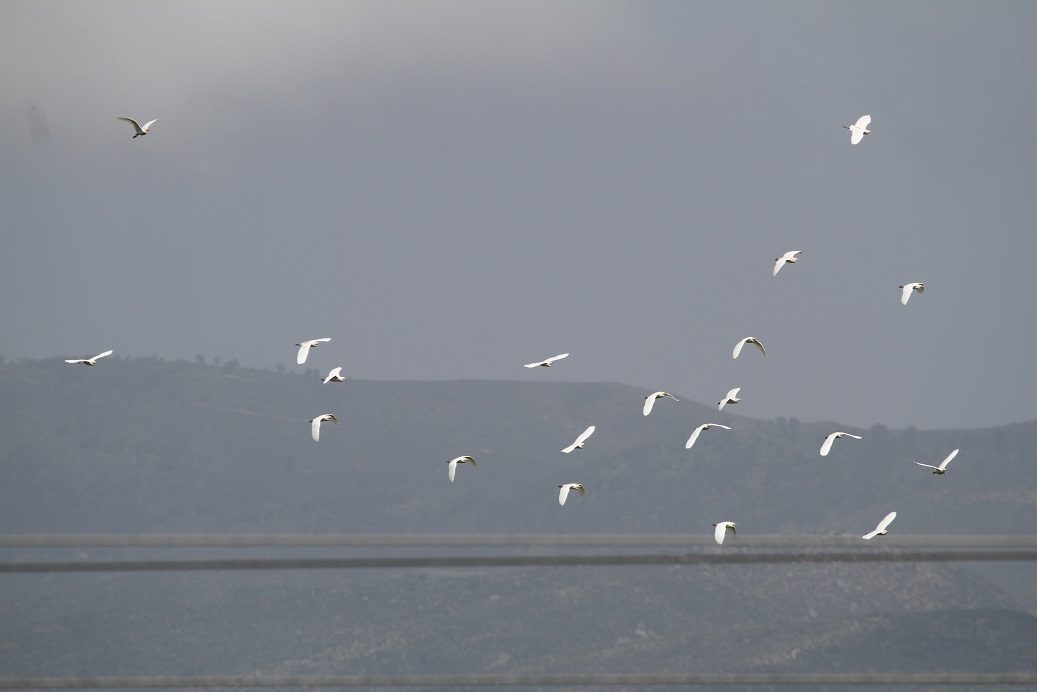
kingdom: Animalia
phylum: Chordata
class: Aves
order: Pelecaniformes
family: Ardeidae
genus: Bubulcus
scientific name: Bubulcus ibis
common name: Cattle egret
